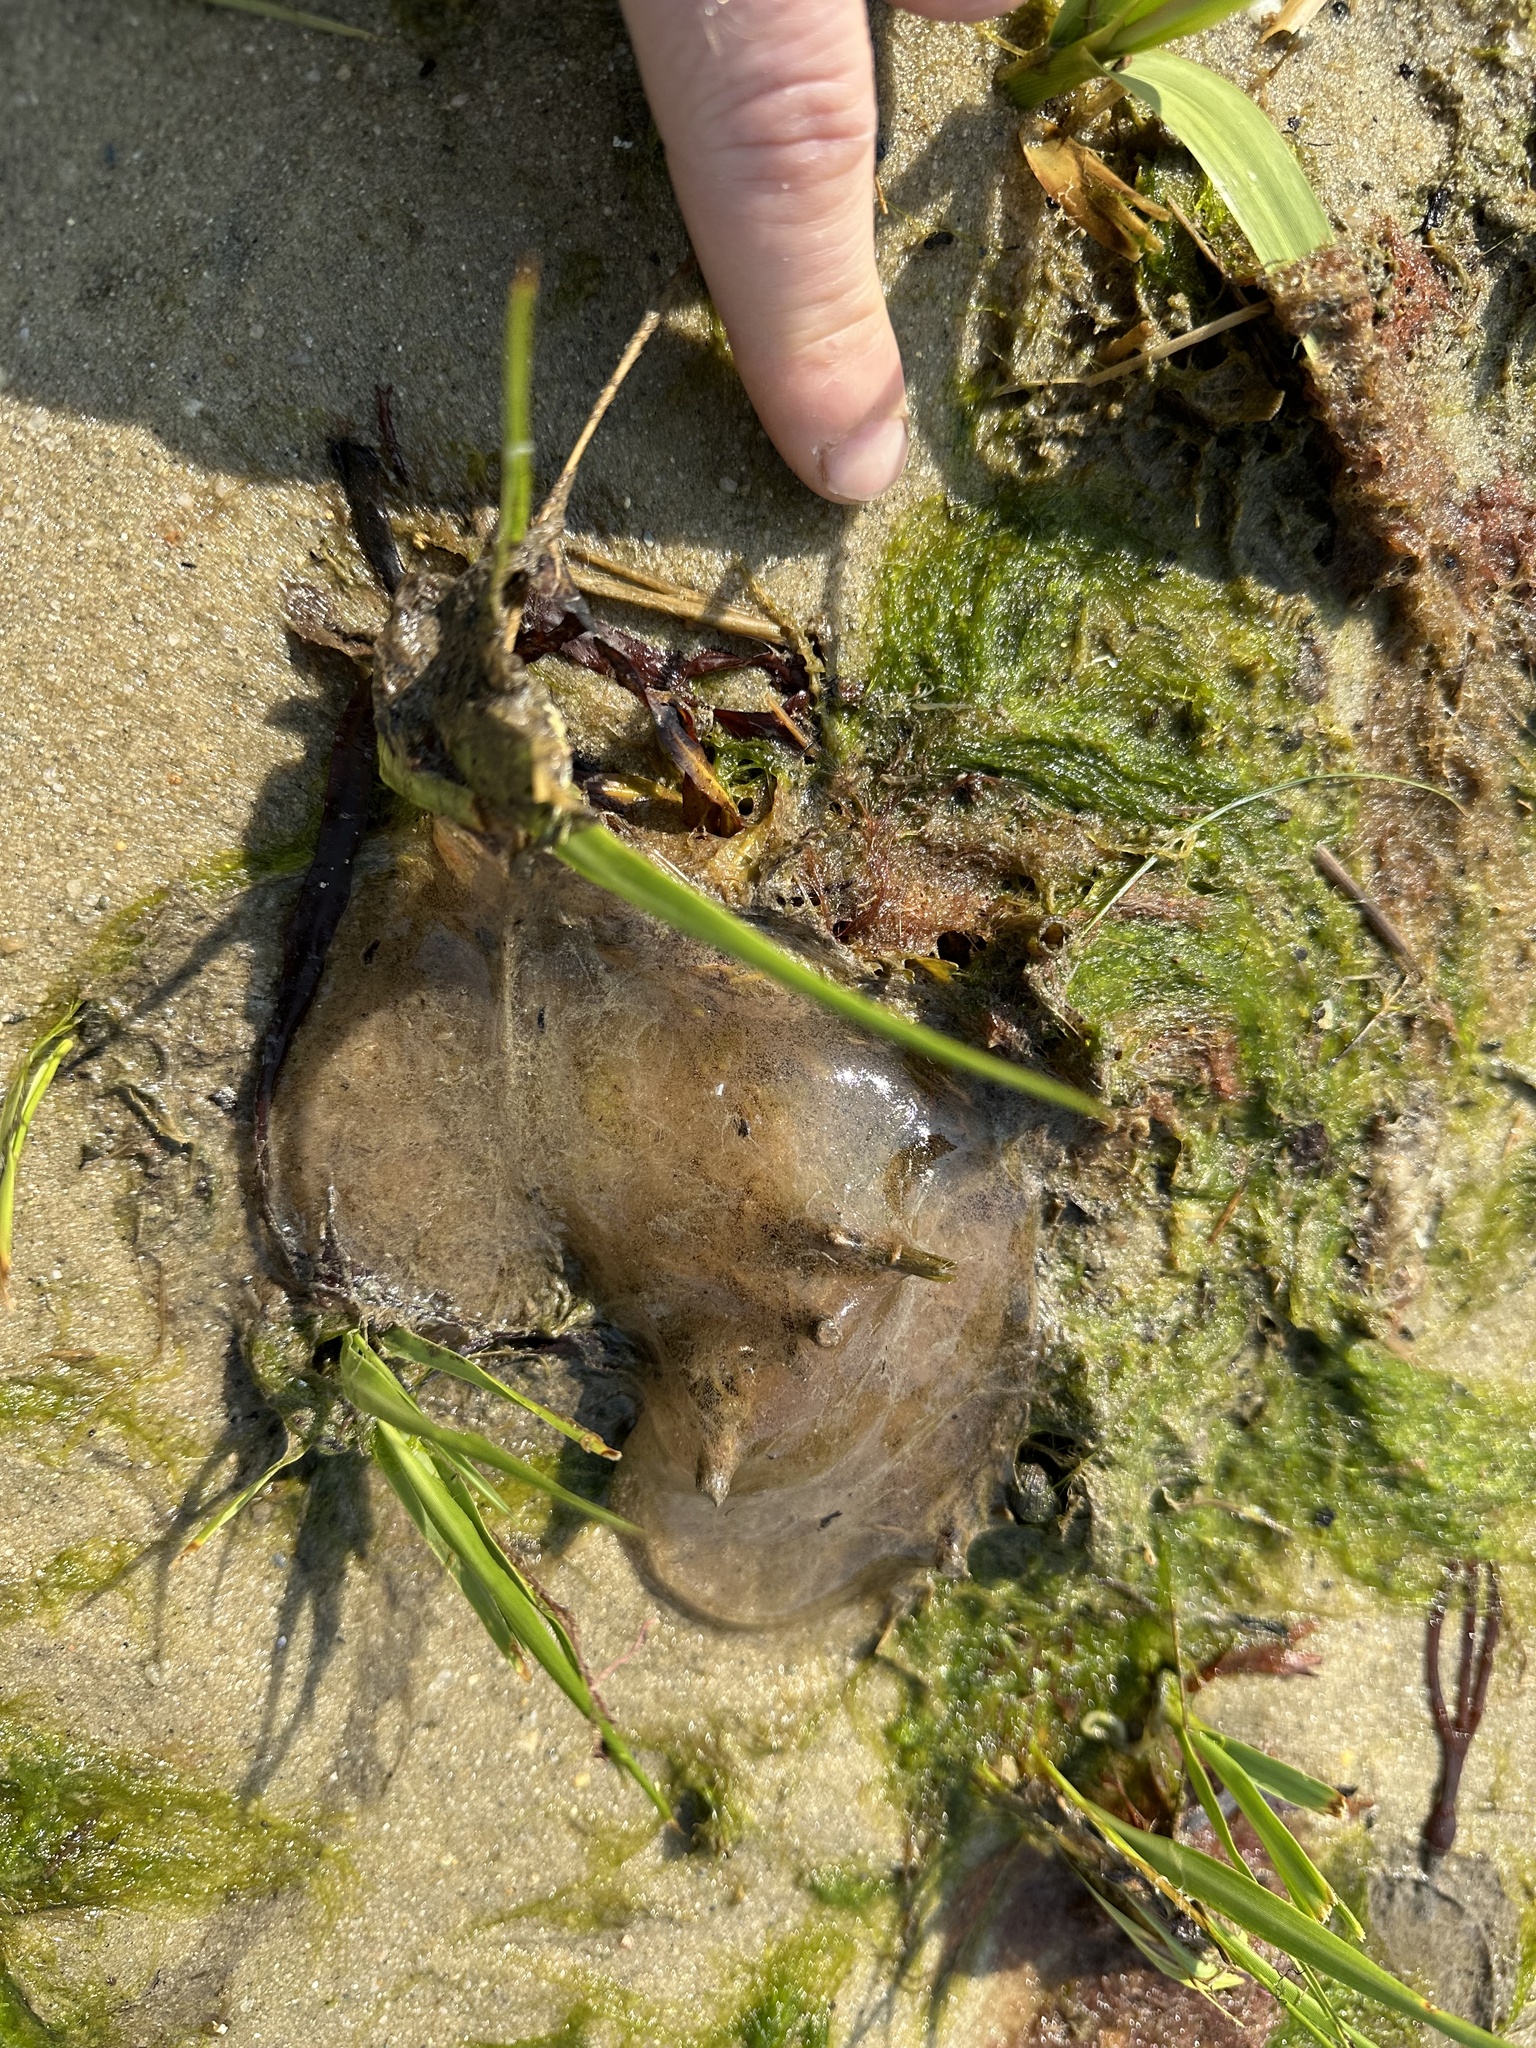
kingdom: Animalia
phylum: Annelida
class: Polychaeta
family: Arenicolidae
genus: Arenicola
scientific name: Arenicola cristata
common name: American lug worm
